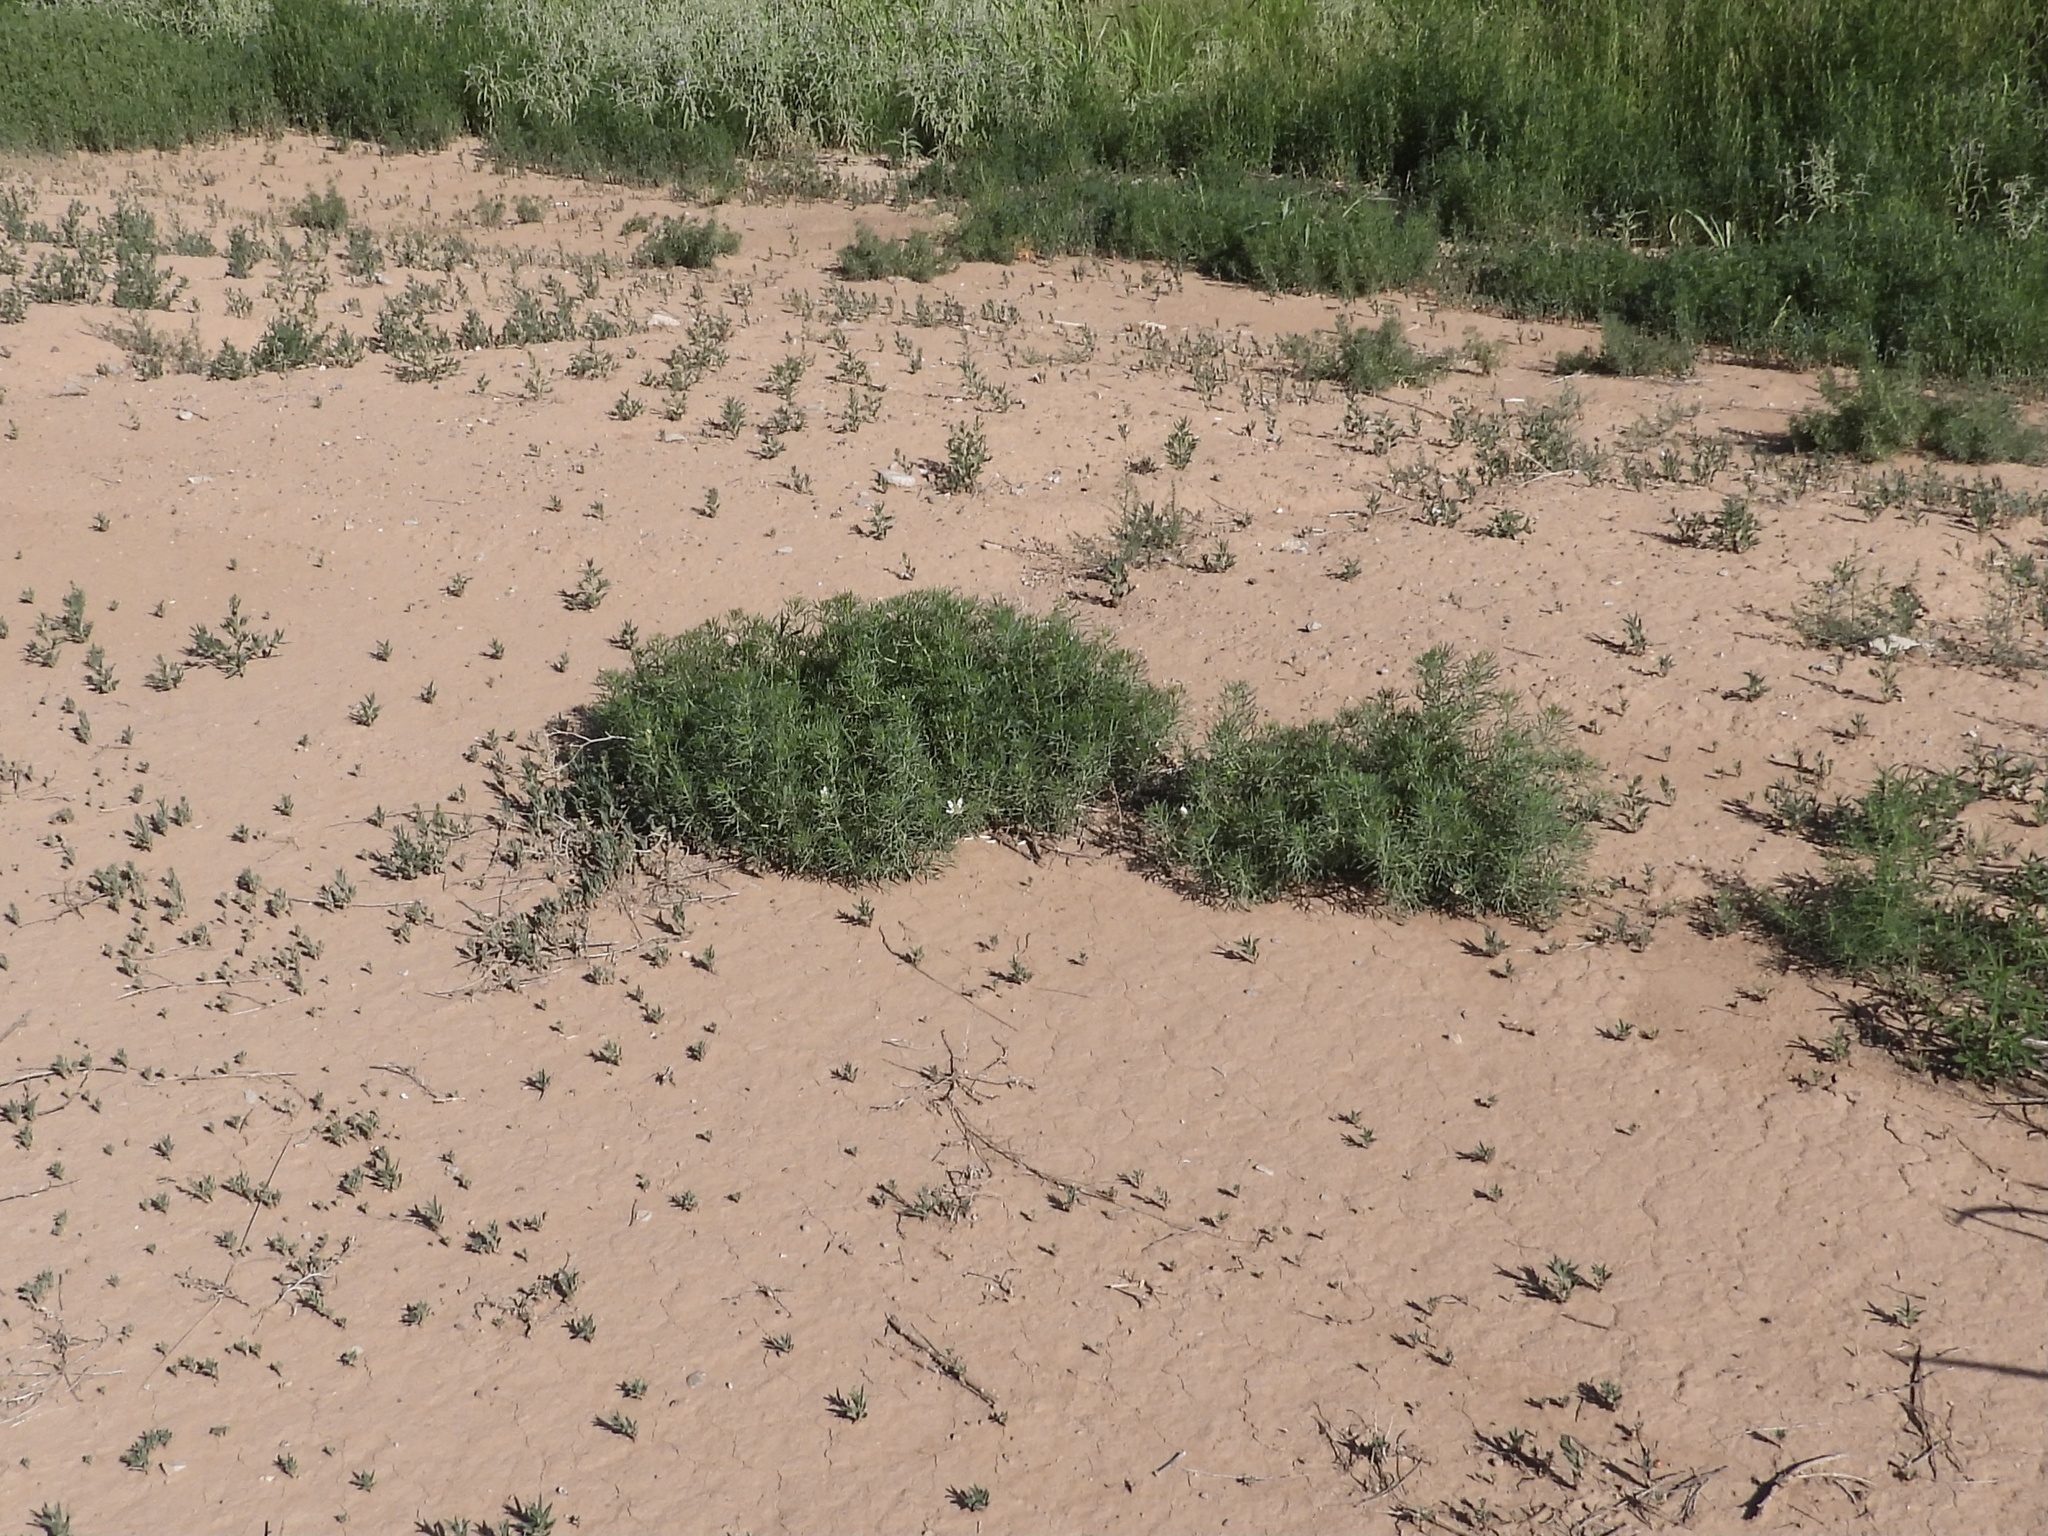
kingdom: Plantae
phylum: Tracheophyta
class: Magnoliopsida
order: Sapindales
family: Tetradiclidaceae
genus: Peganum
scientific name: Peganum harmala
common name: Harmal peganum
